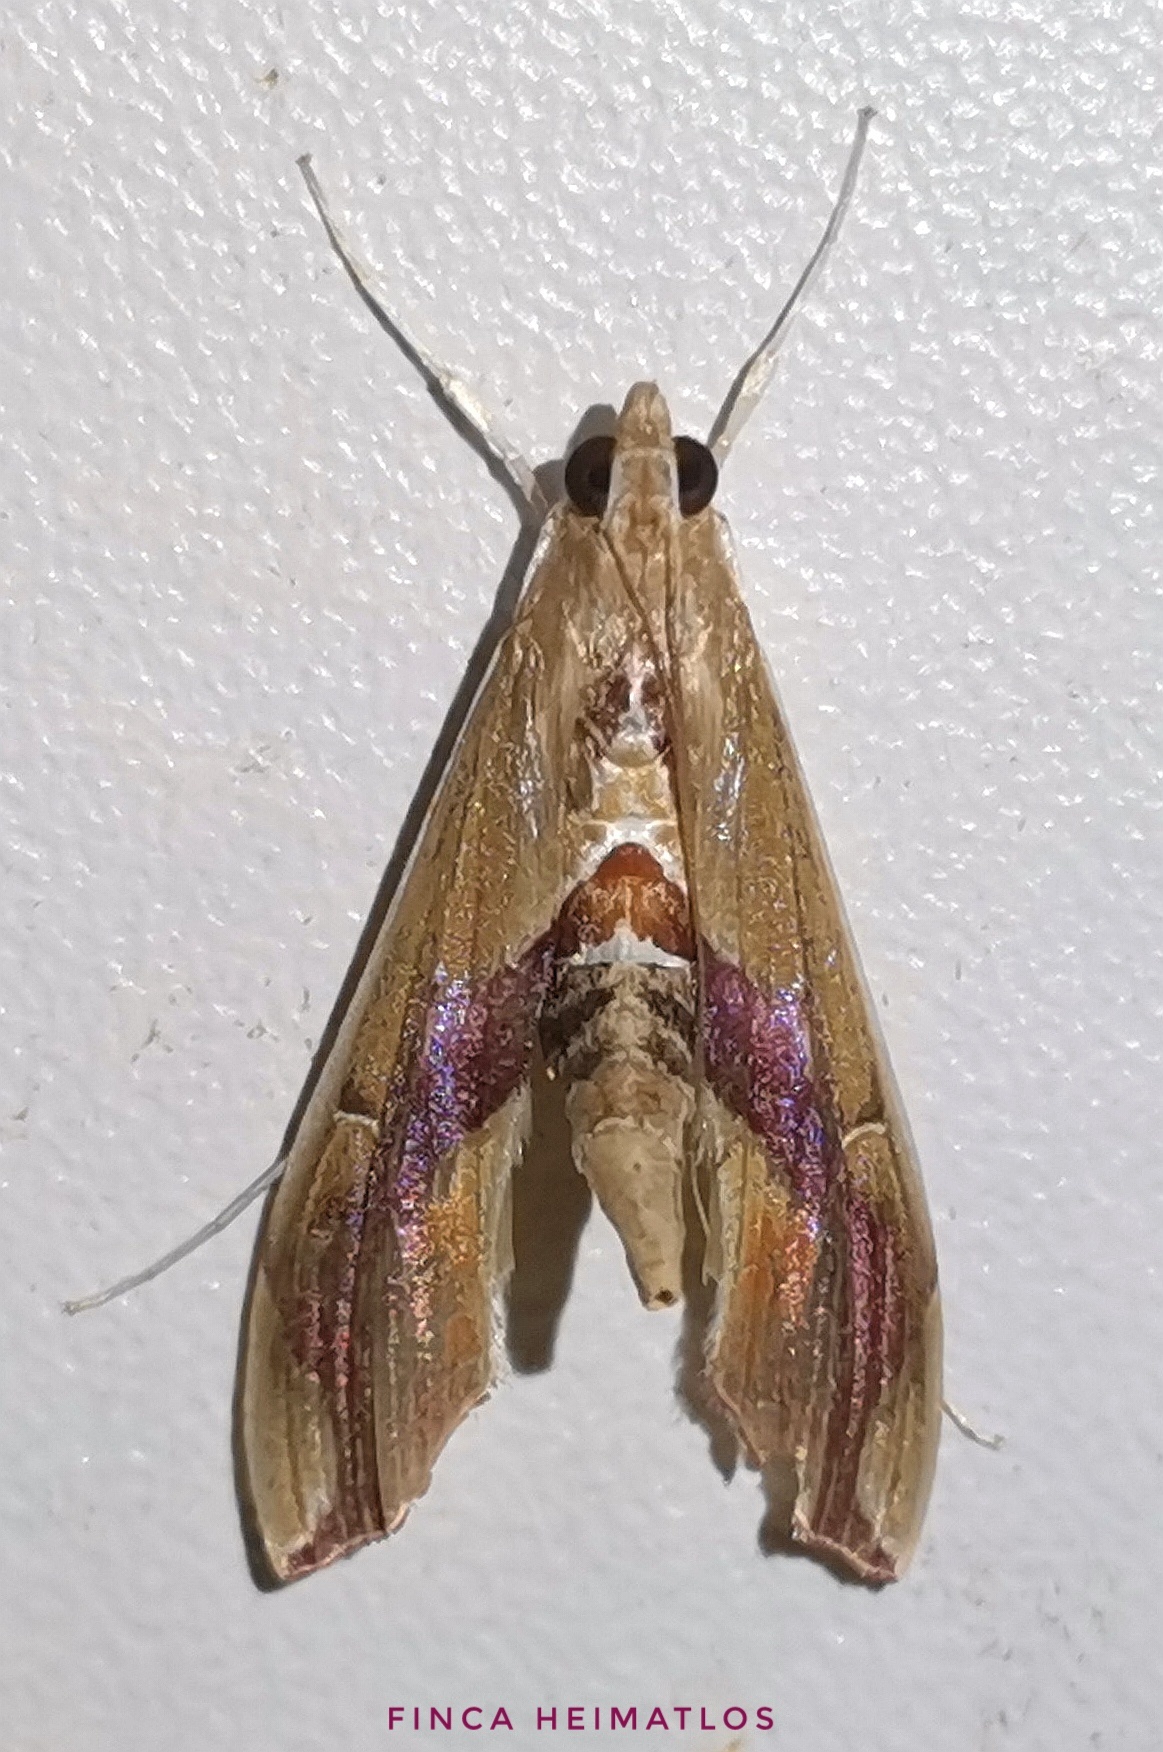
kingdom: Animalia
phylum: Arthropoda
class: Insecta
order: Lepidoptera
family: Crambidae
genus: Agathodes
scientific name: Agathodes designalis
